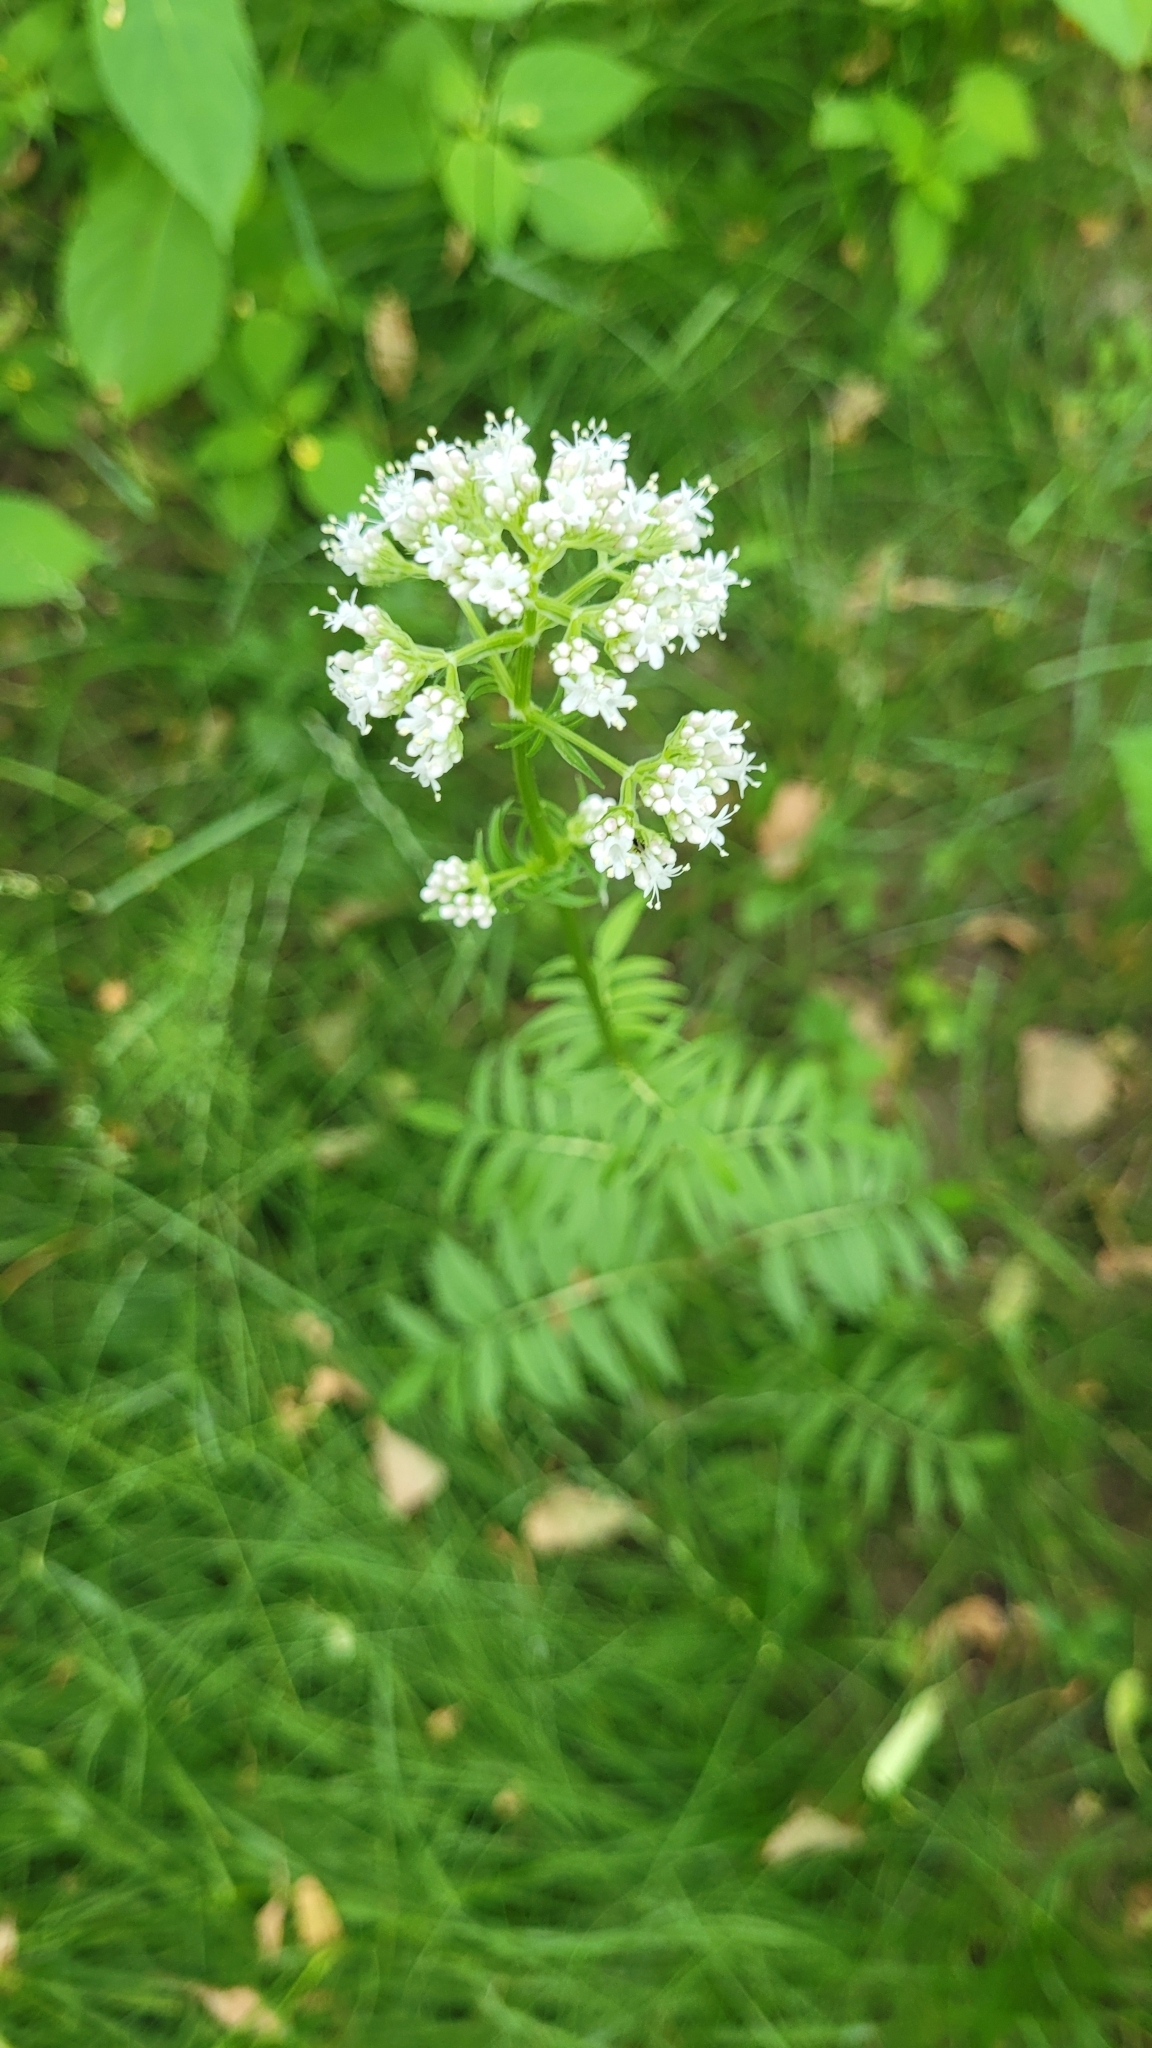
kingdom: Plantae
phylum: Tracheophyta
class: Magnoliopsida
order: Dipsacales
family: Caprifoliaceae
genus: Valeriana
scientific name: Valeriana officinalis
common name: Common valerian
